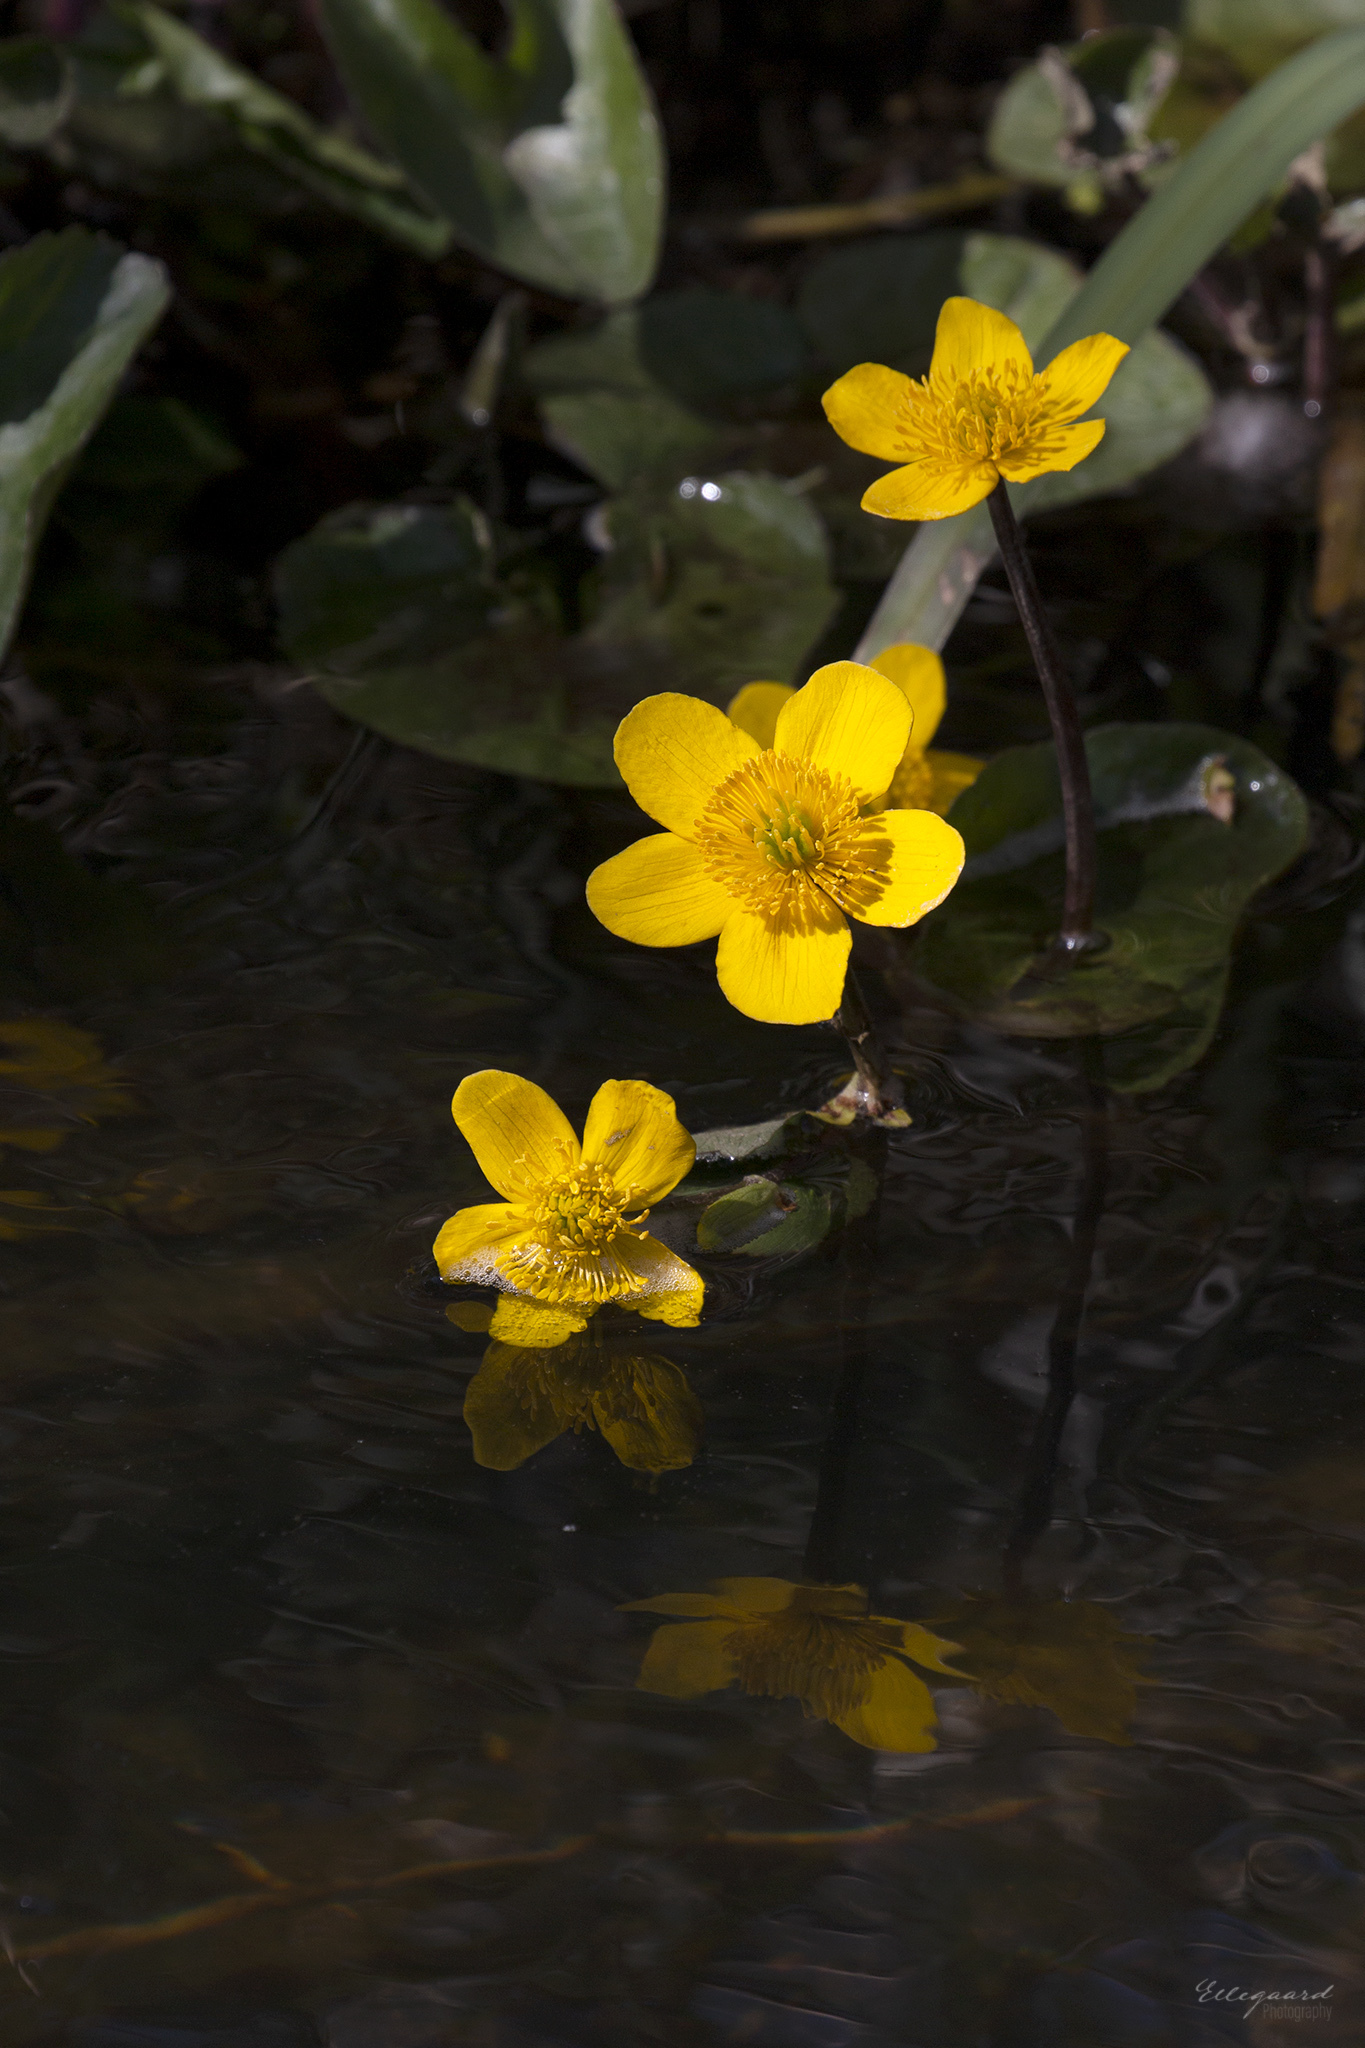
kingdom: Plantae
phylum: Tracheophyta
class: Magnoliopsida
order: Ranunculales
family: Ranunculaceae
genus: Caltha
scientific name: Caltha palustris
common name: Marsh marigold
